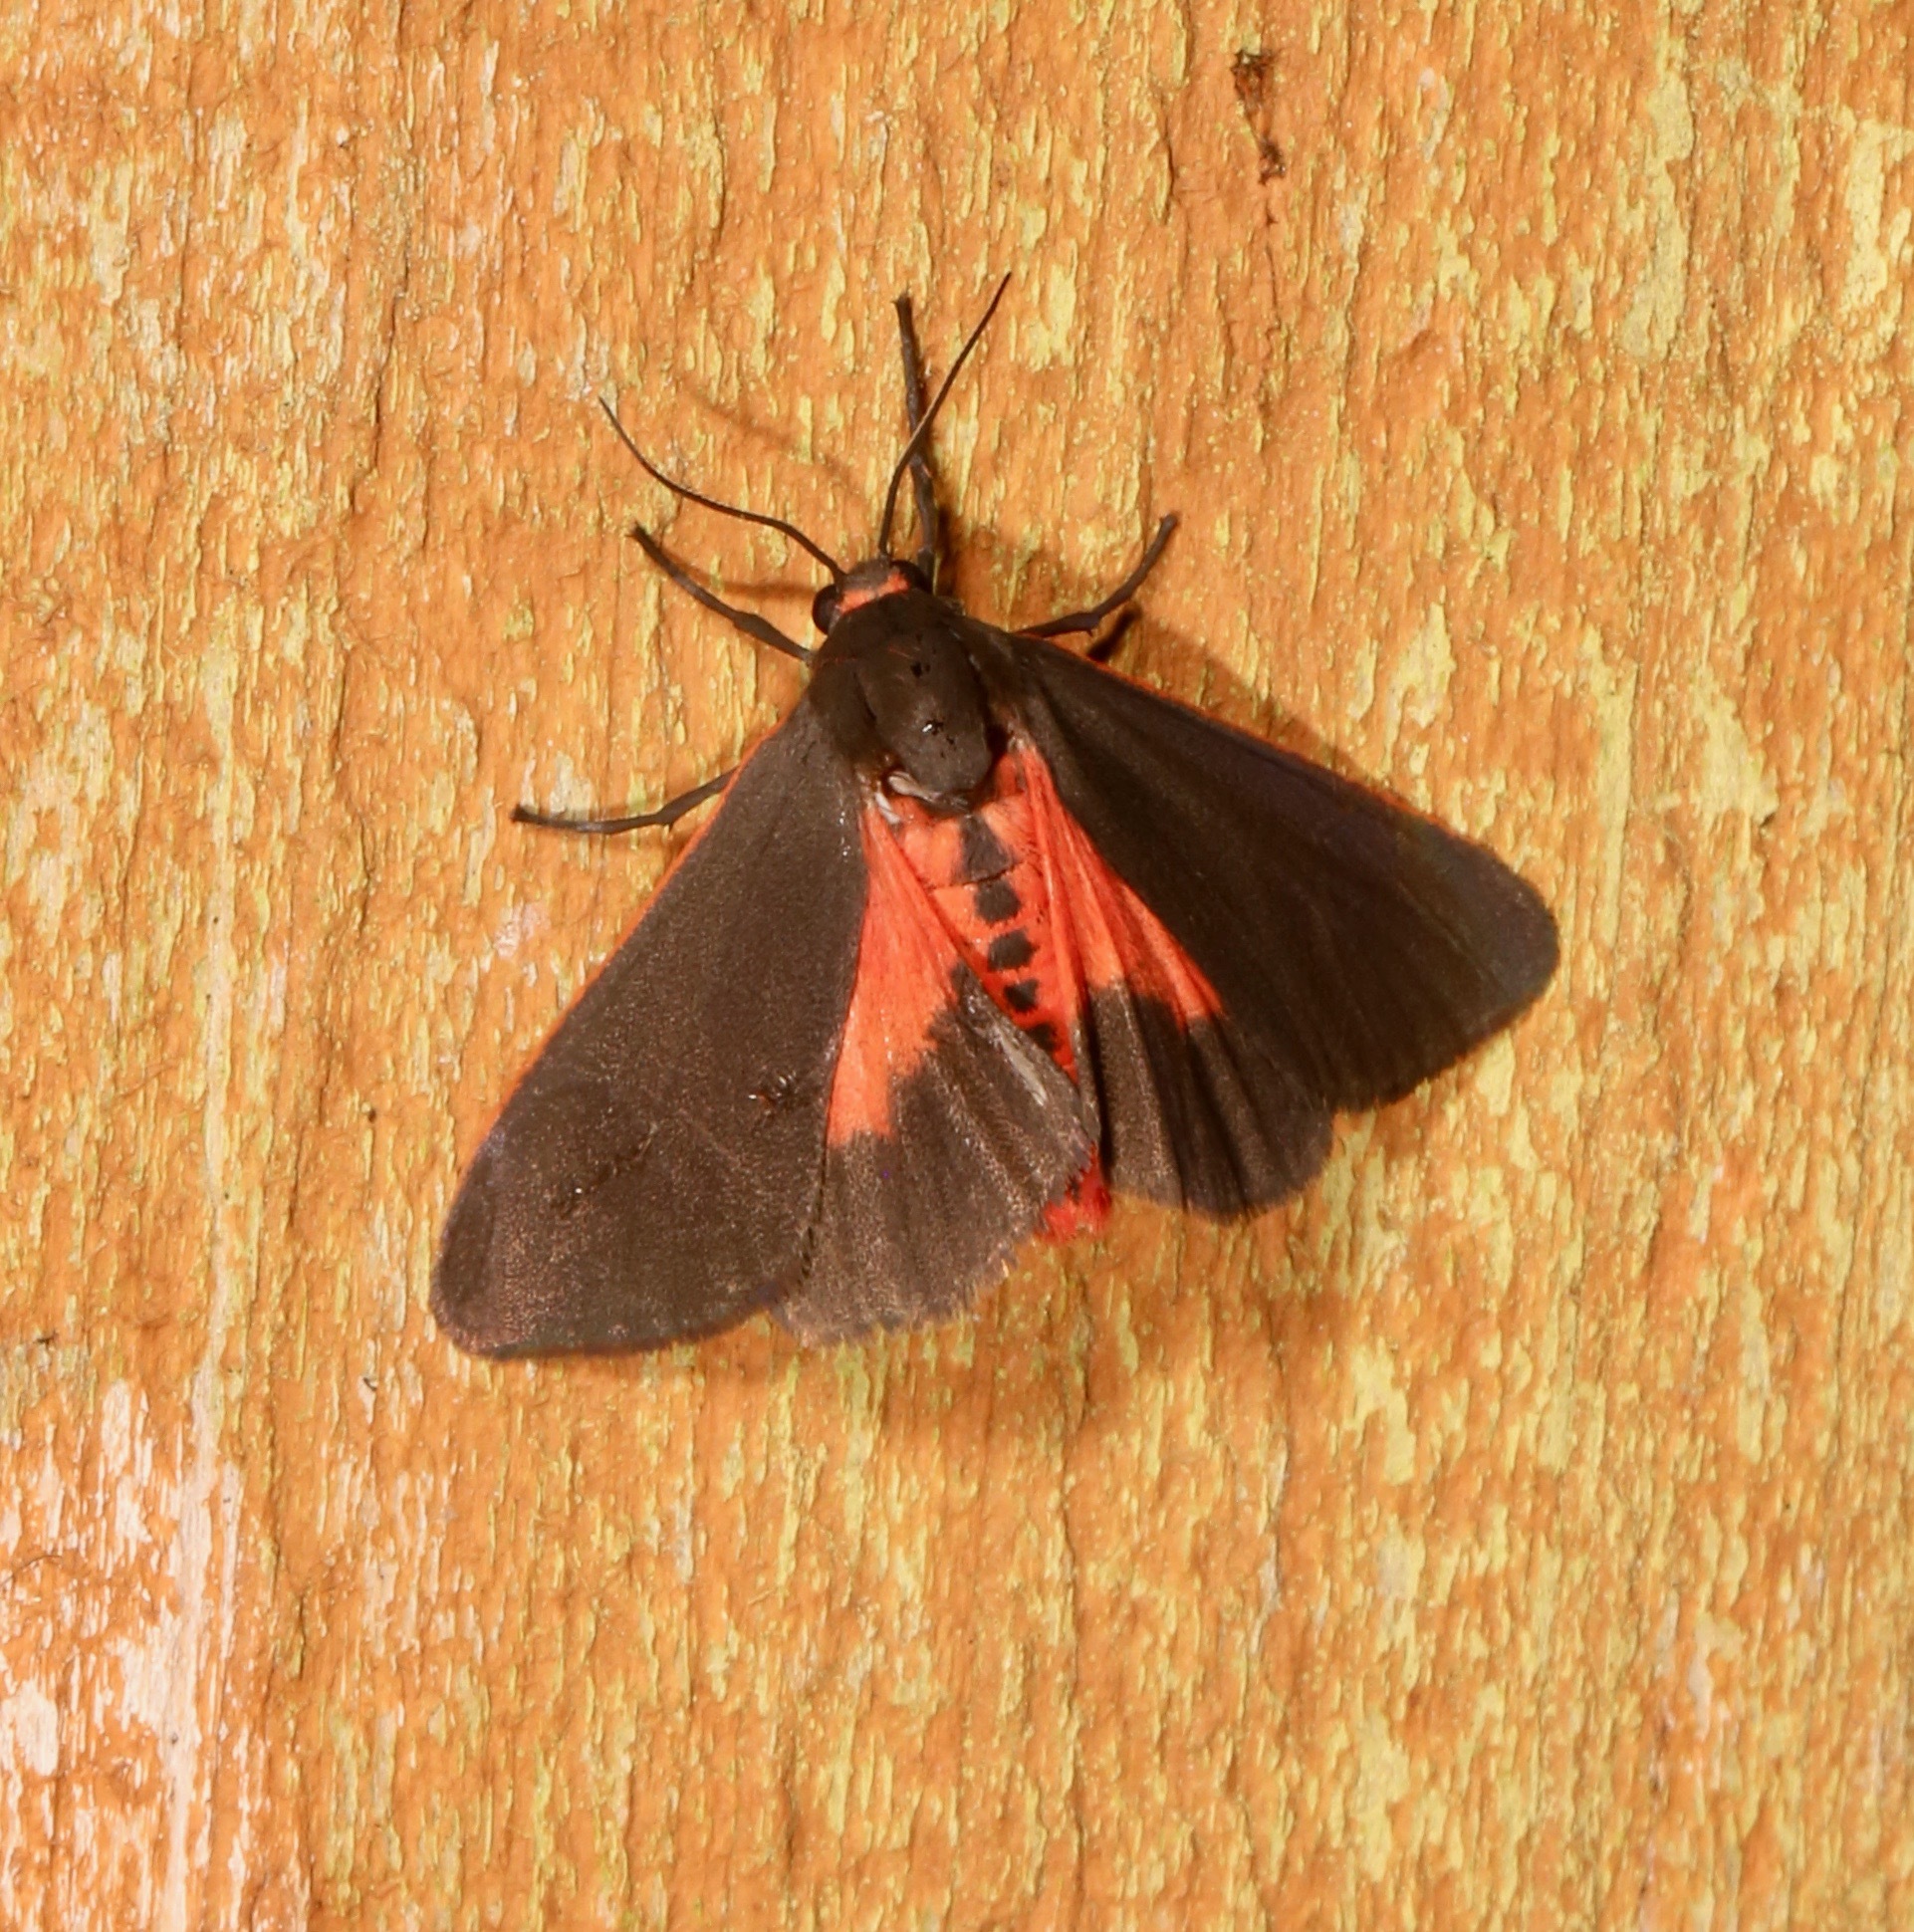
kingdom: Animalia
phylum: Arthropoda
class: Insecta
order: Lepidoptera
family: Erebidae
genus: Virbia
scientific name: Virbia laeta
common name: Joyful holomelina moth
